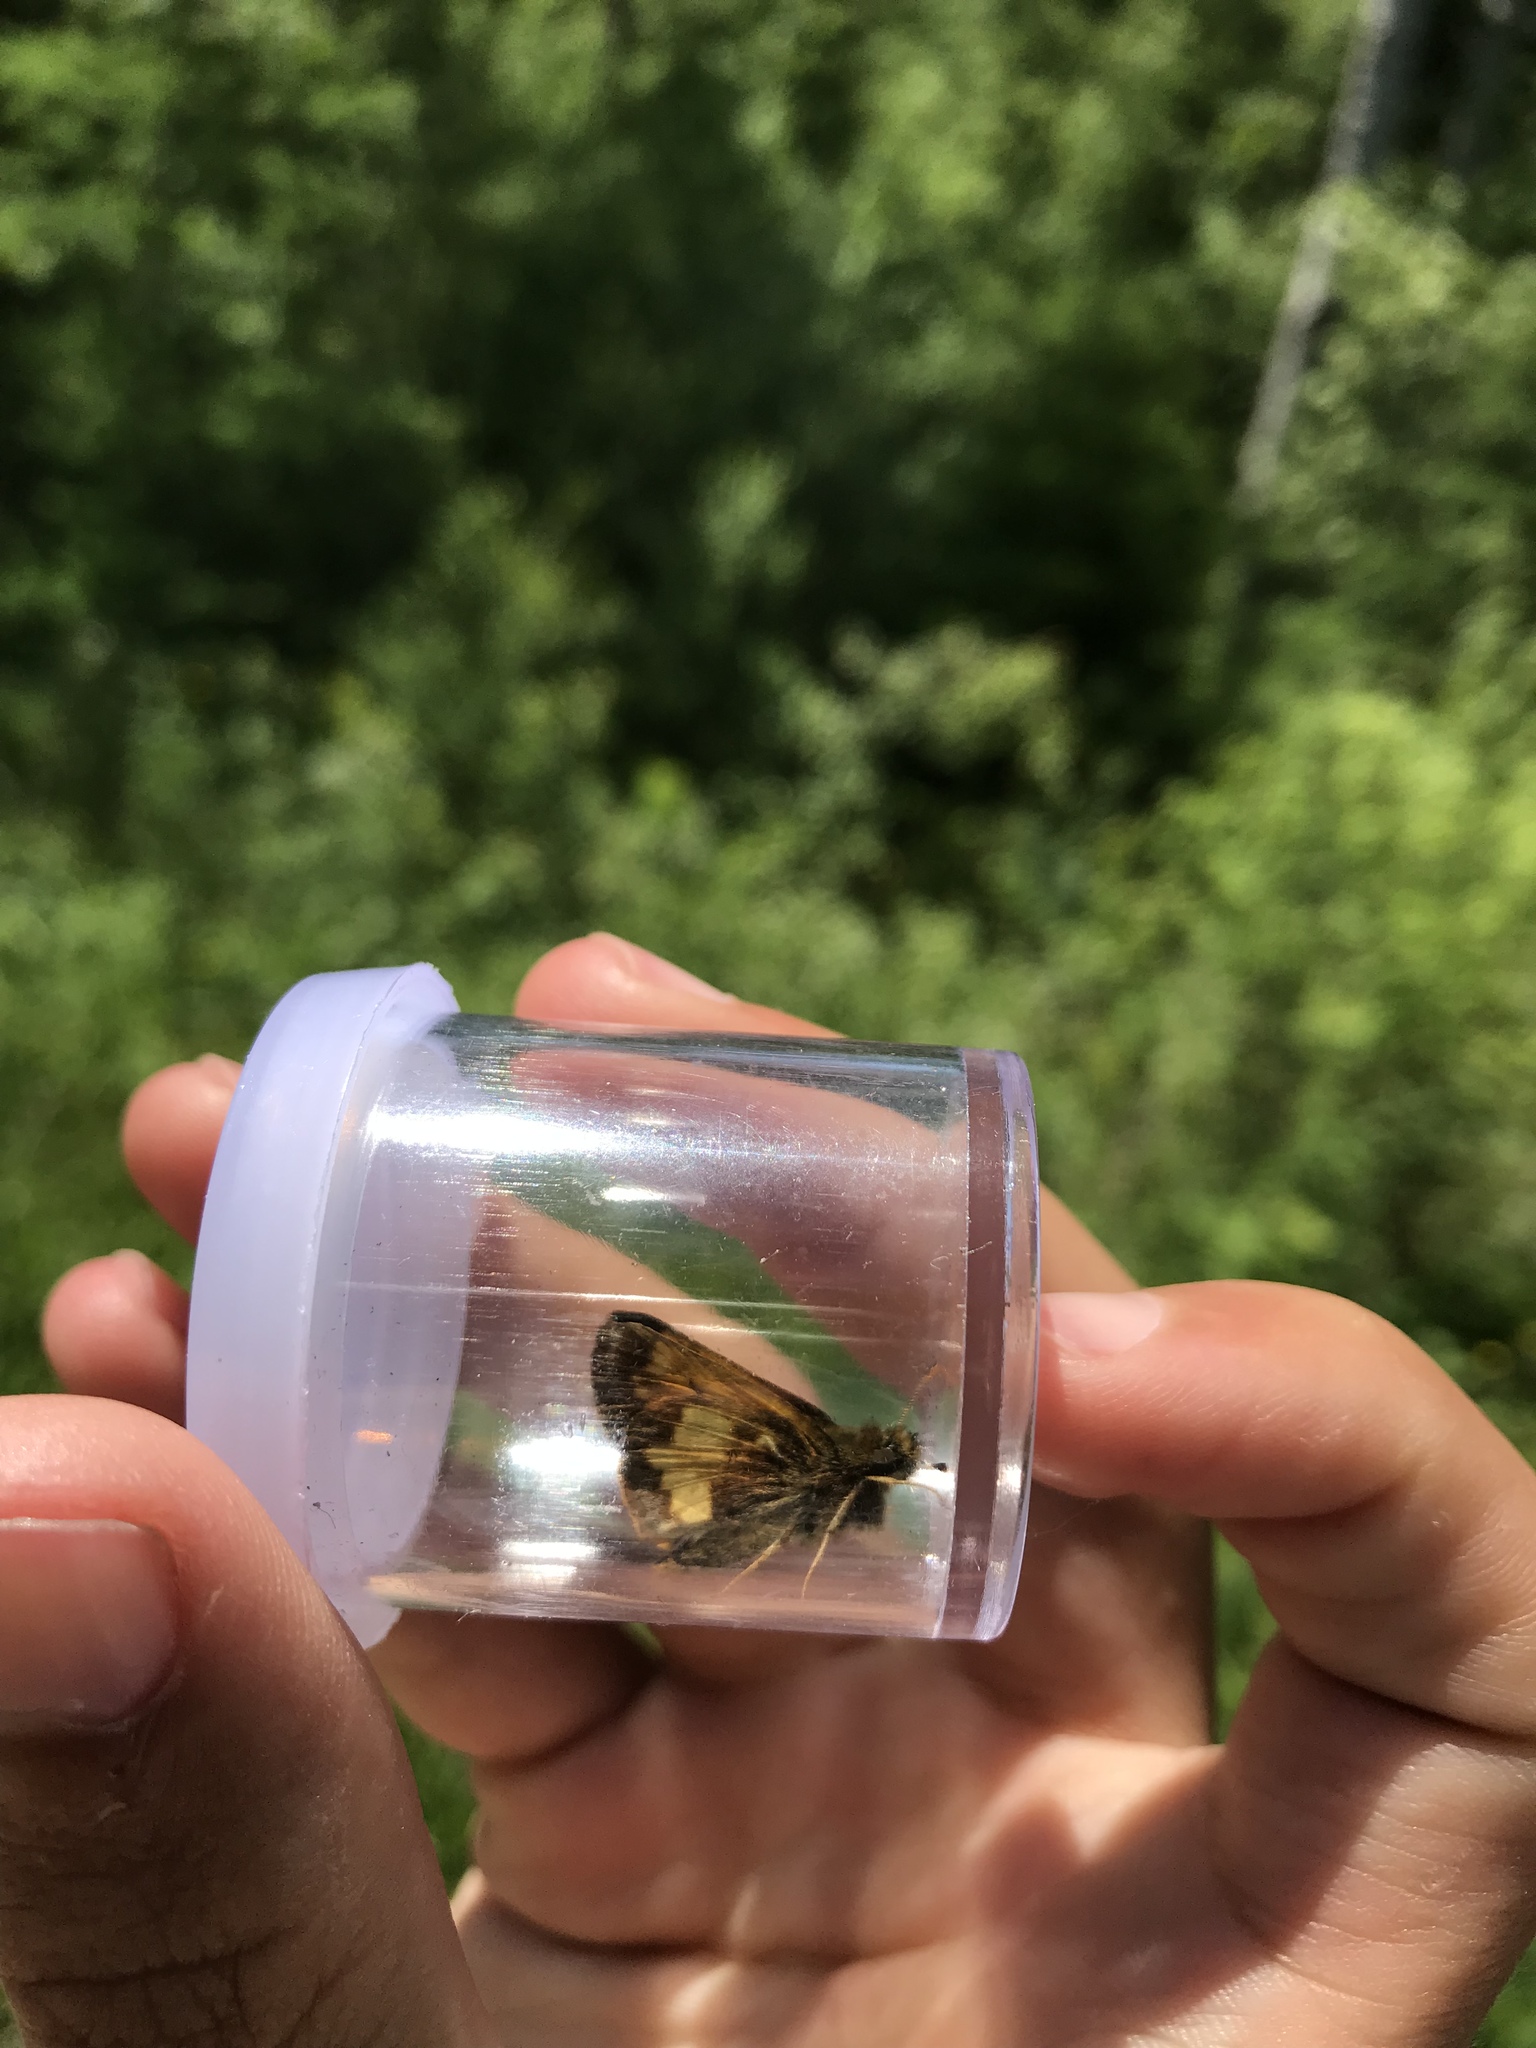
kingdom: Animalia
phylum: Arthropoda
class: Insecta
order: Lepidoptera
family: Hesperiidae
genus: Lon
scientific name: Lon hobomok
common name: Hobomok skipper
